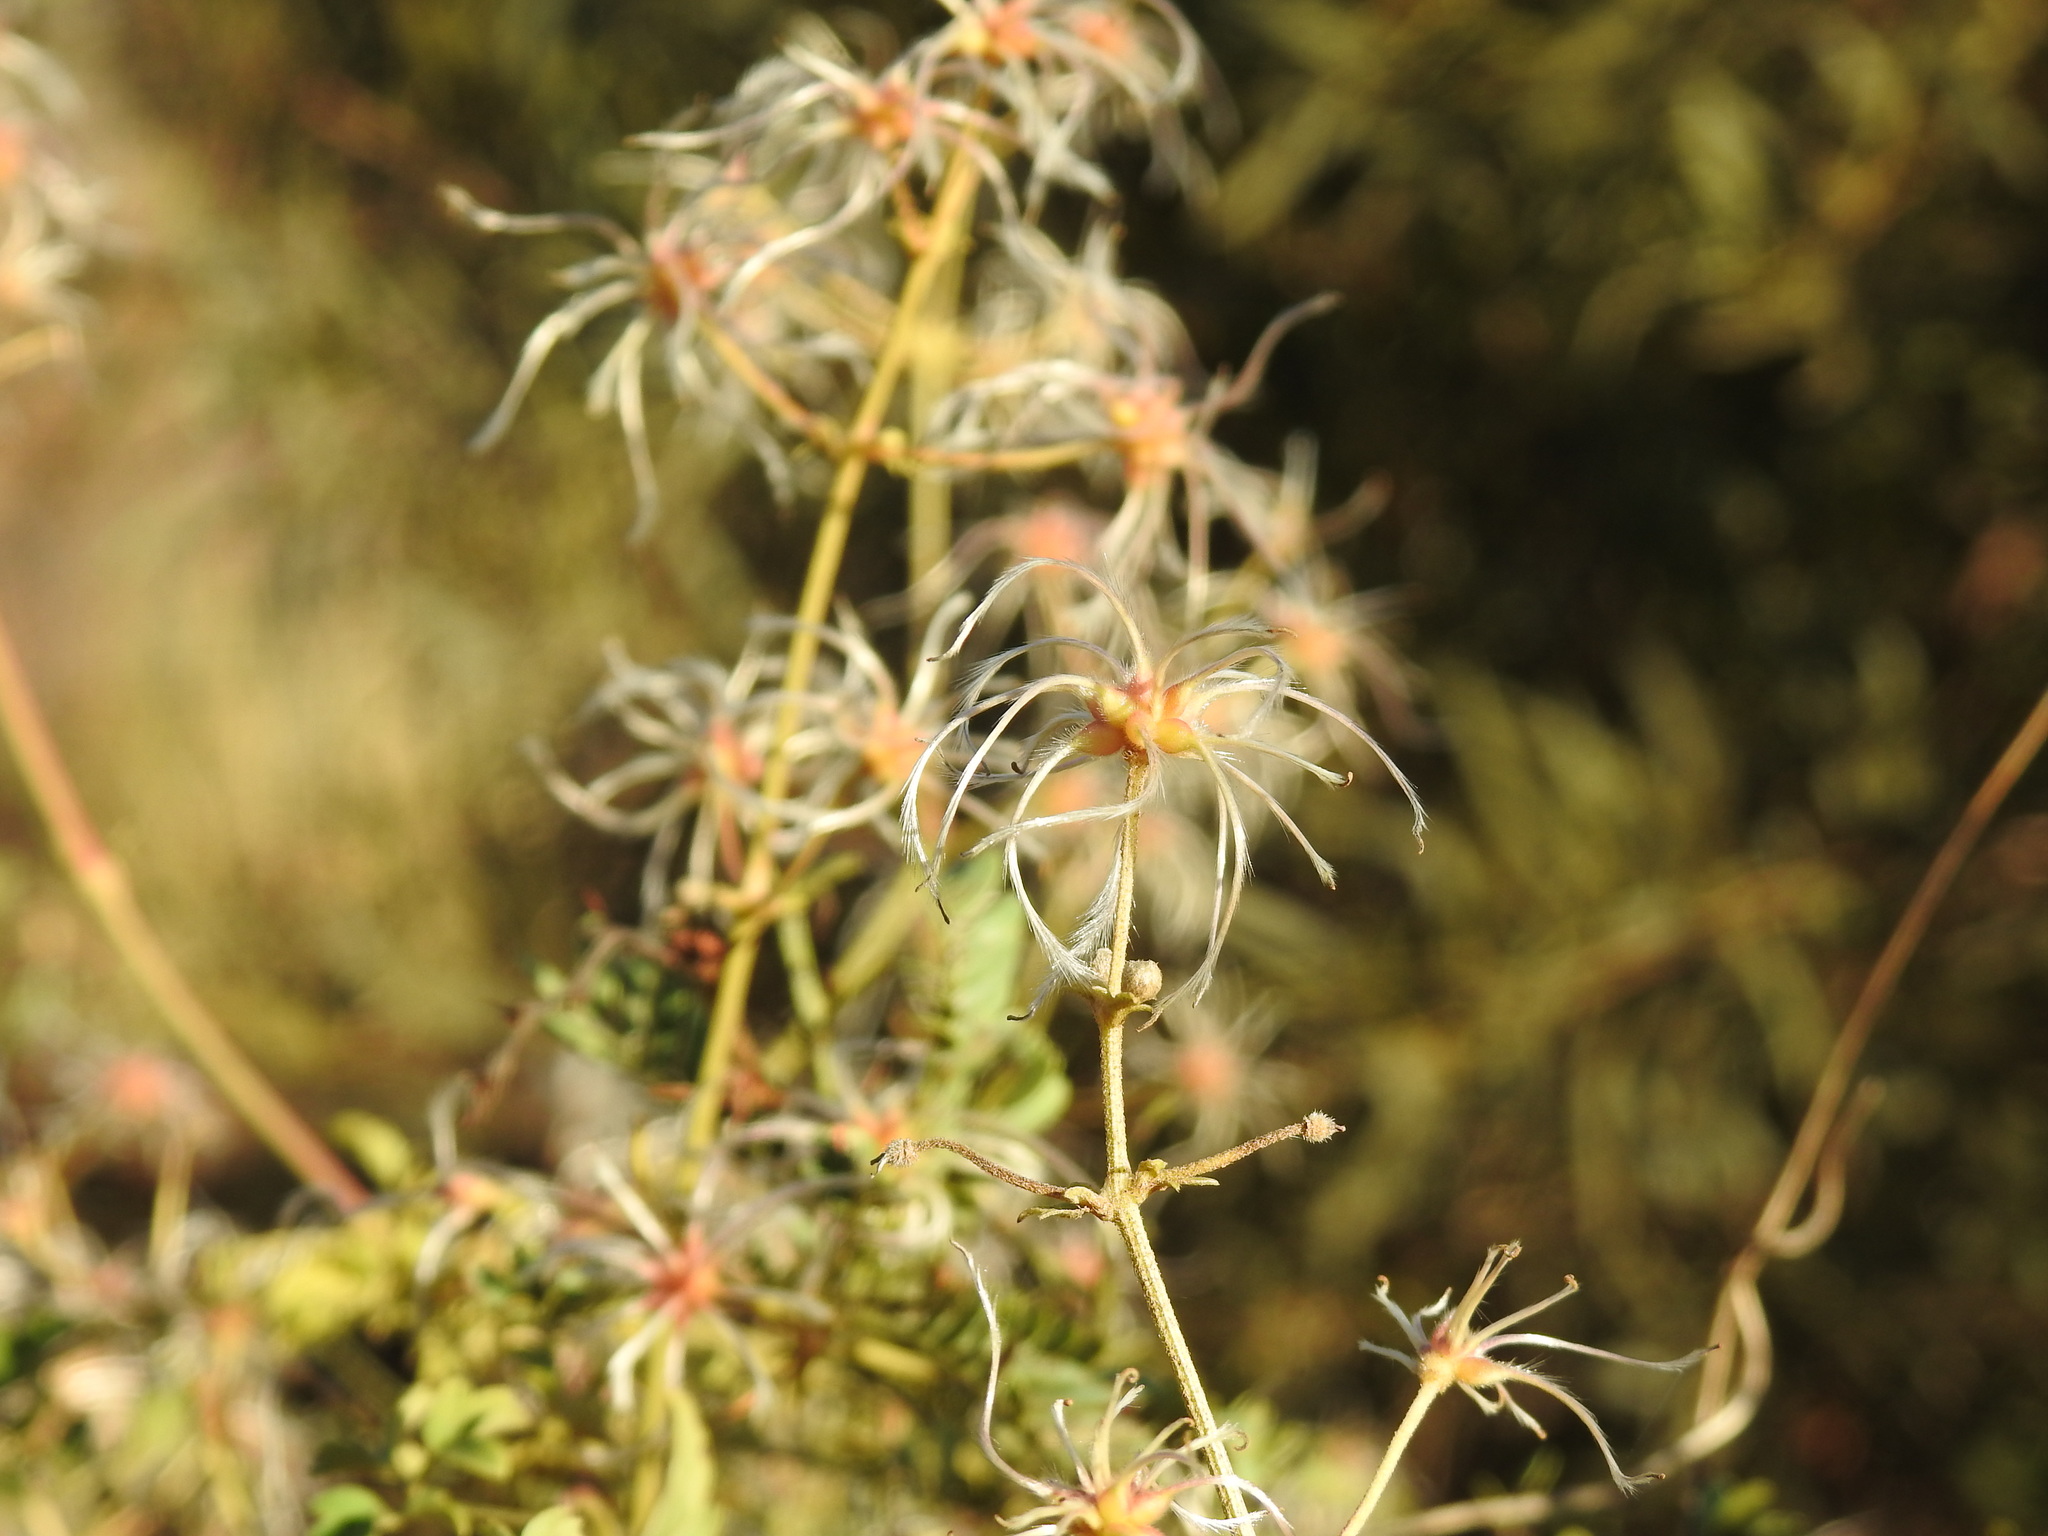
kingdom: Plantae
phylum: Tracheophyta
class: Magnoliopsida
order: Ranunculales
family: Ranunculaceae
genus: Clematis
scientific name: Clematis brachiata
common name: Traveler's-joy
